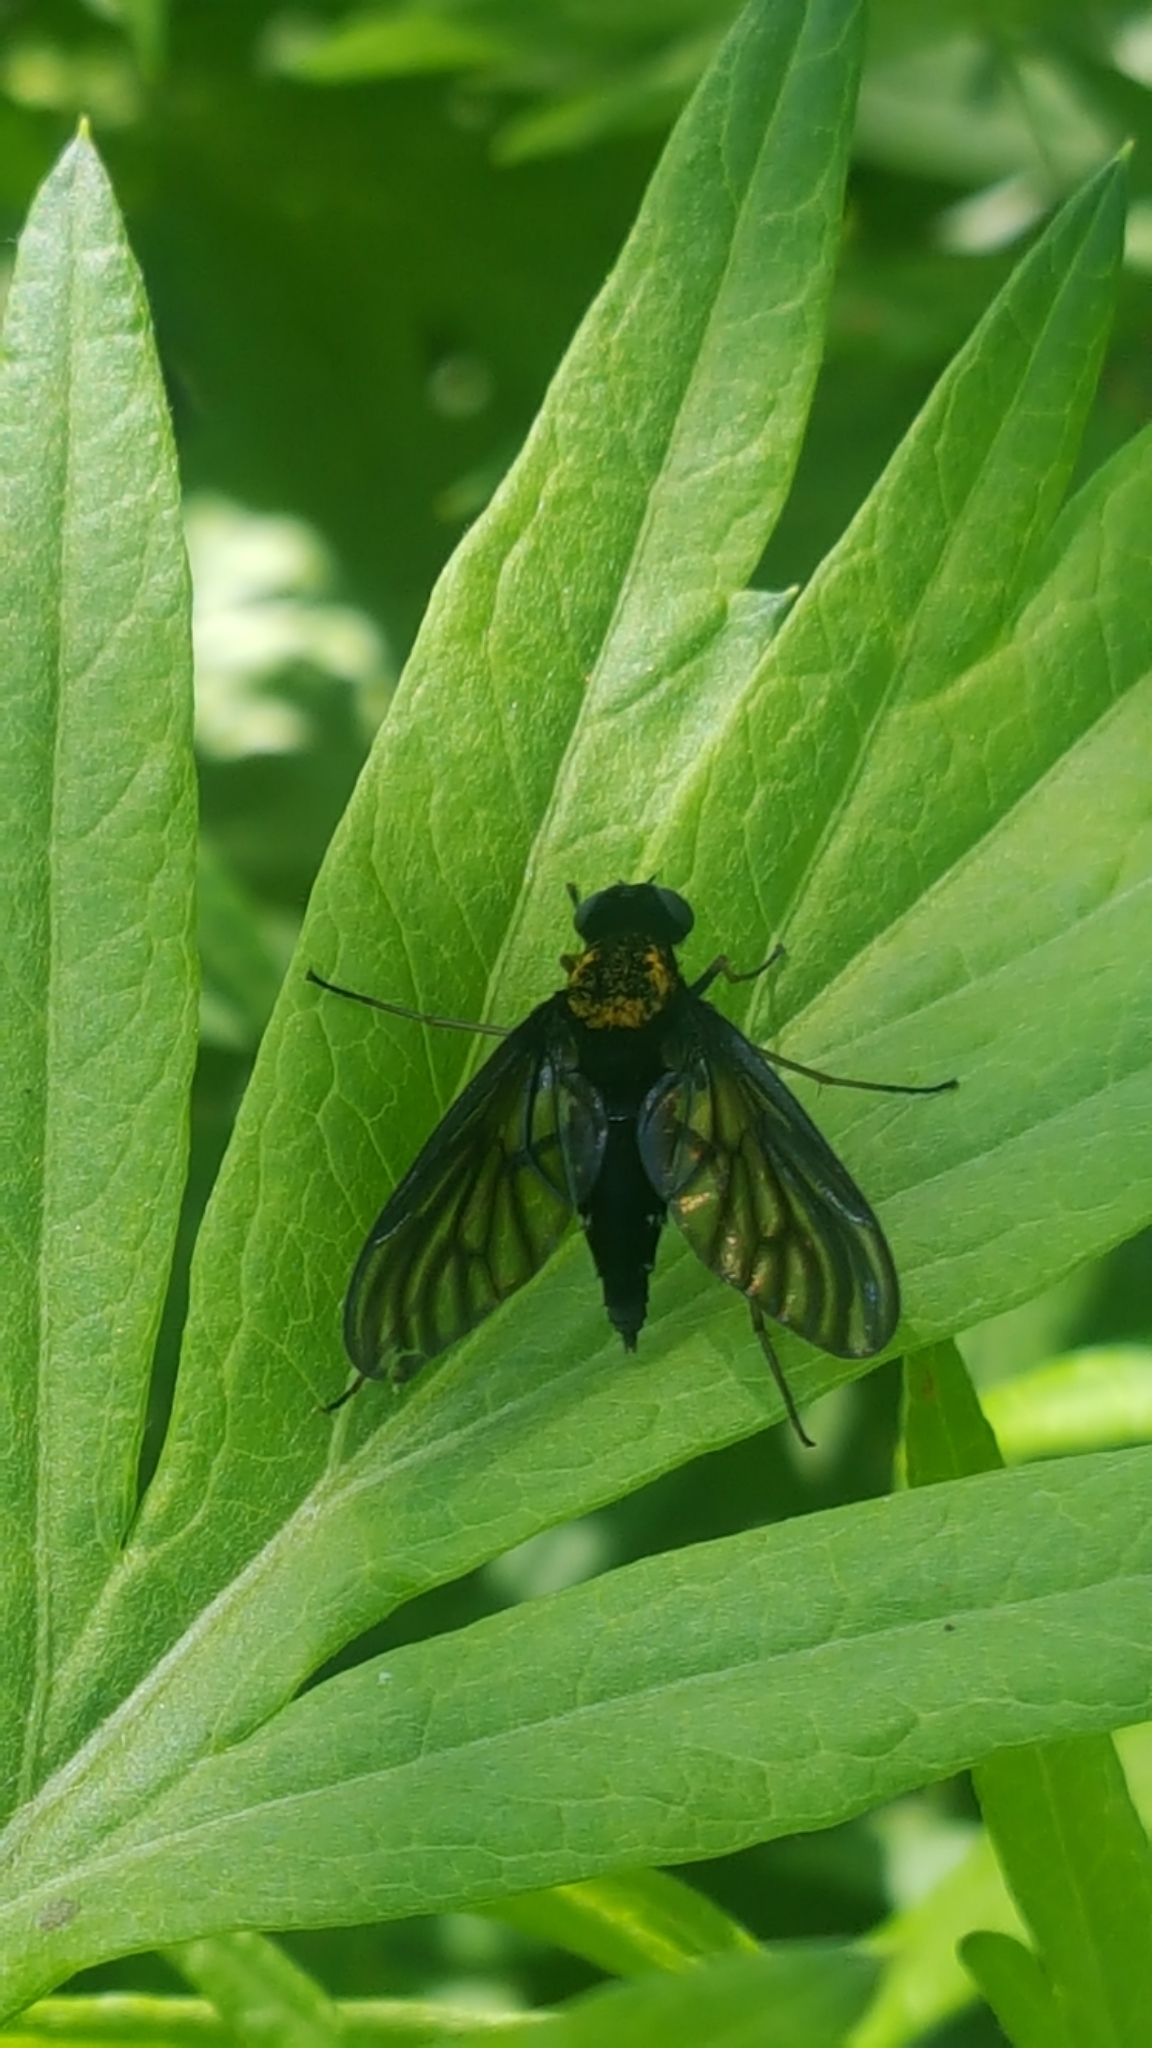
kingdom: Animalia
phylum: Arthropoda
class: Insecta
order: Diptera
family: Rhagionidae
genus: Chrysopilus
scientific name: Chrysopilus thoracicus
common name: Golden-backed snipe fly
